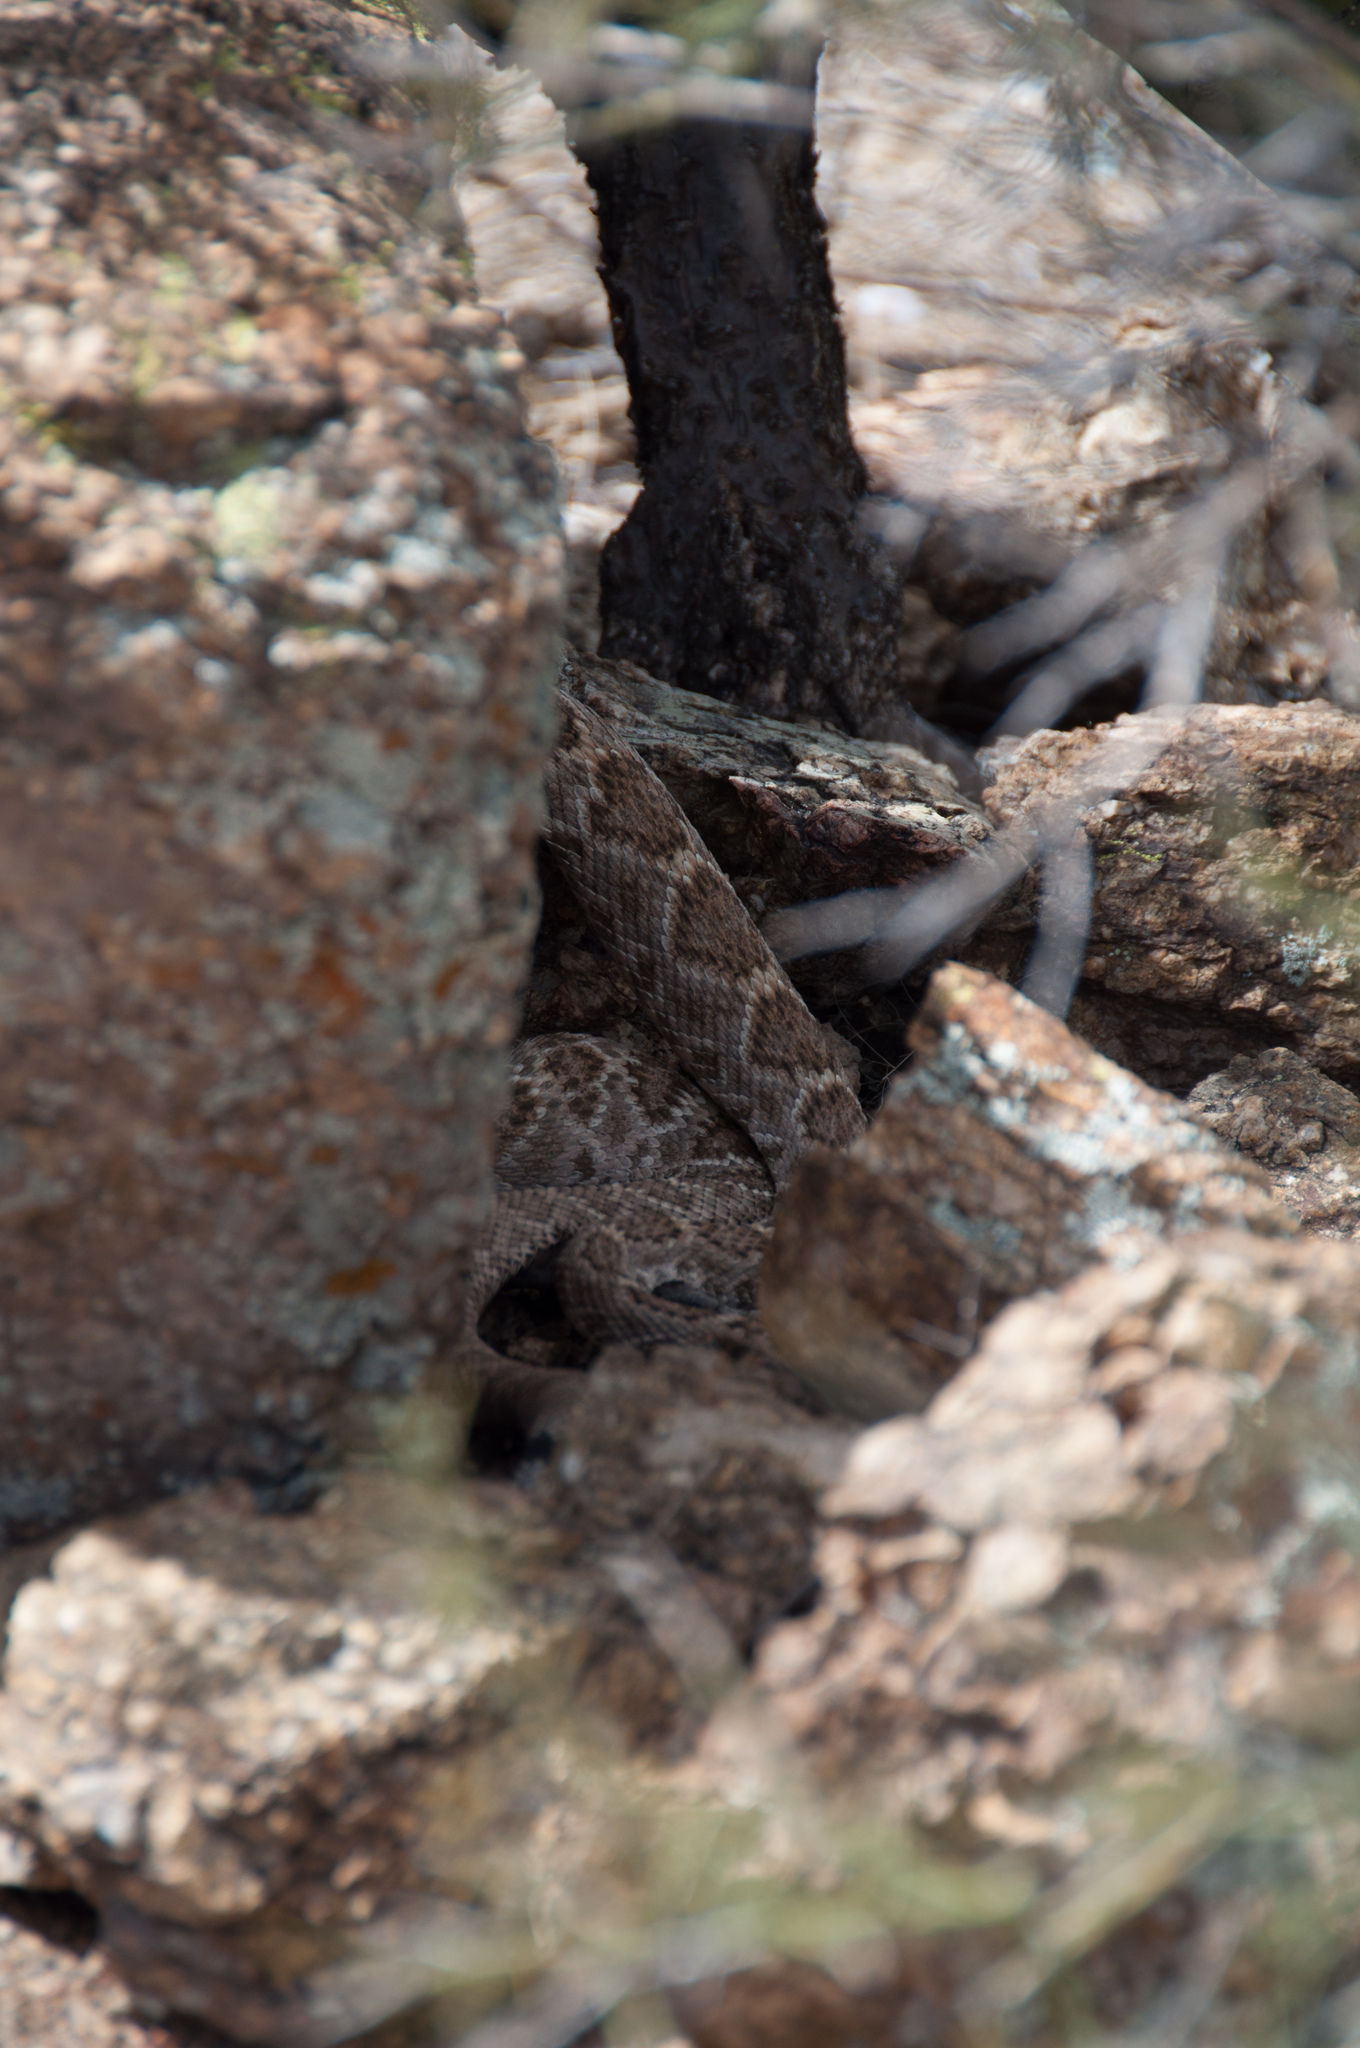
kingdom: Animalia
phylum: Chordata
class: Squamata
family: Viperidae
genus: Crotalus
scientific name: Crotalus atrox
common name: Western diamond-backed rattlesnake
